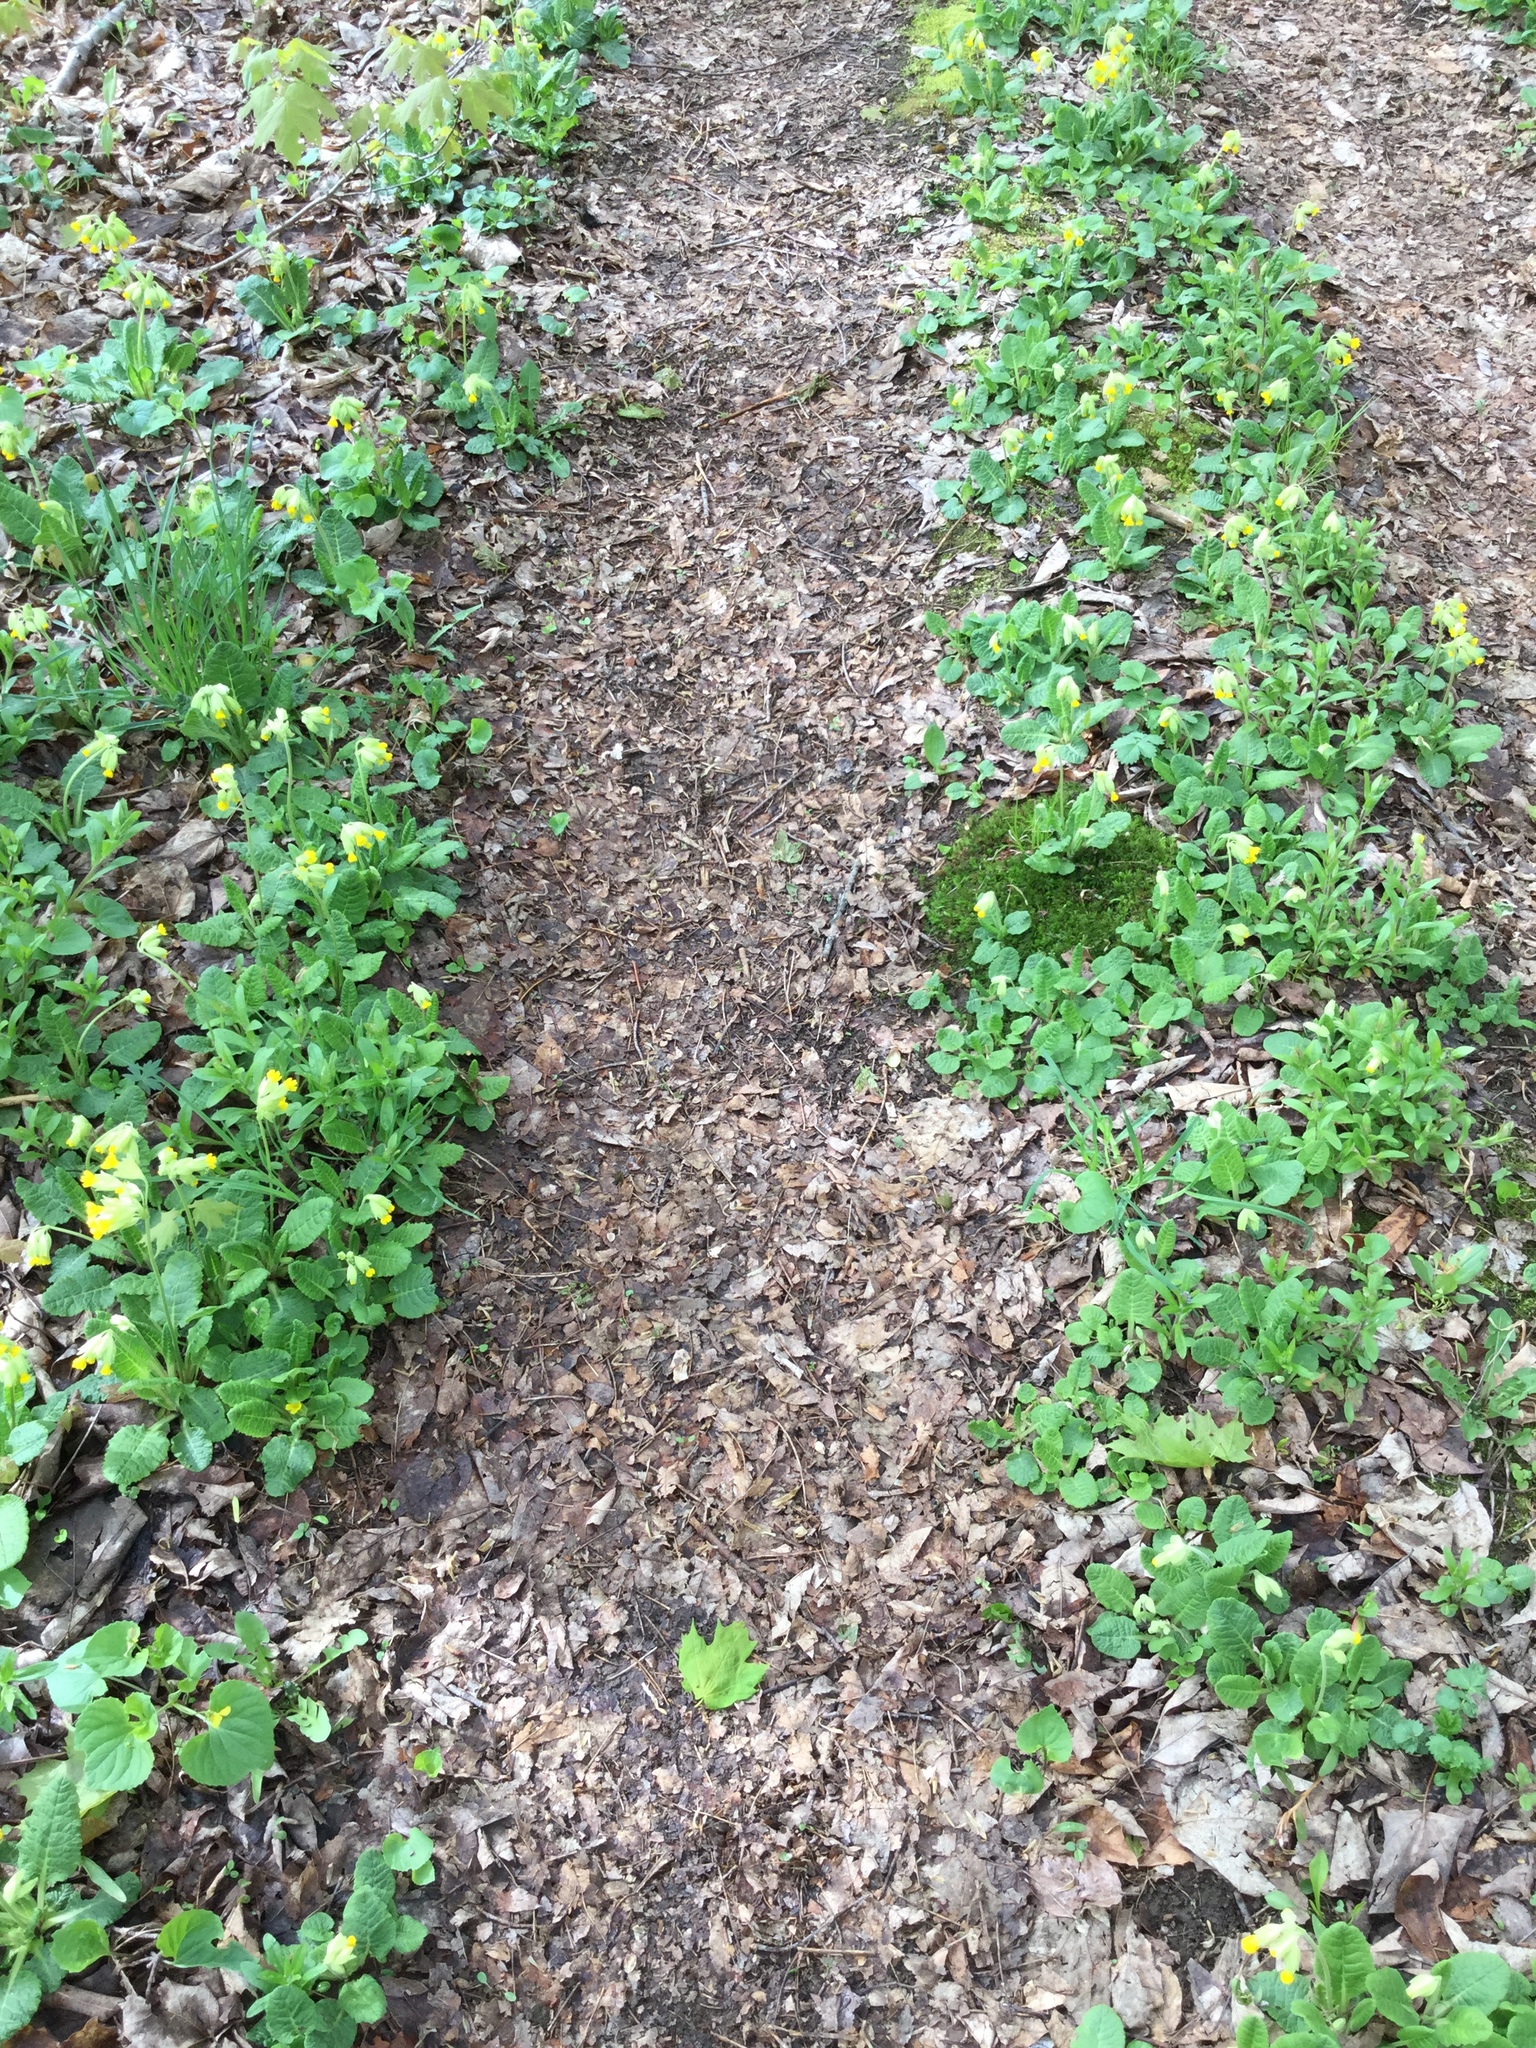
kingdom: Plantae
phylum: Tracheophyta
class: Magnoliopsida
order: Ericales
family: Primulaceae
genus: Primula
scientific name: Primula veris
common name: Cowslip
